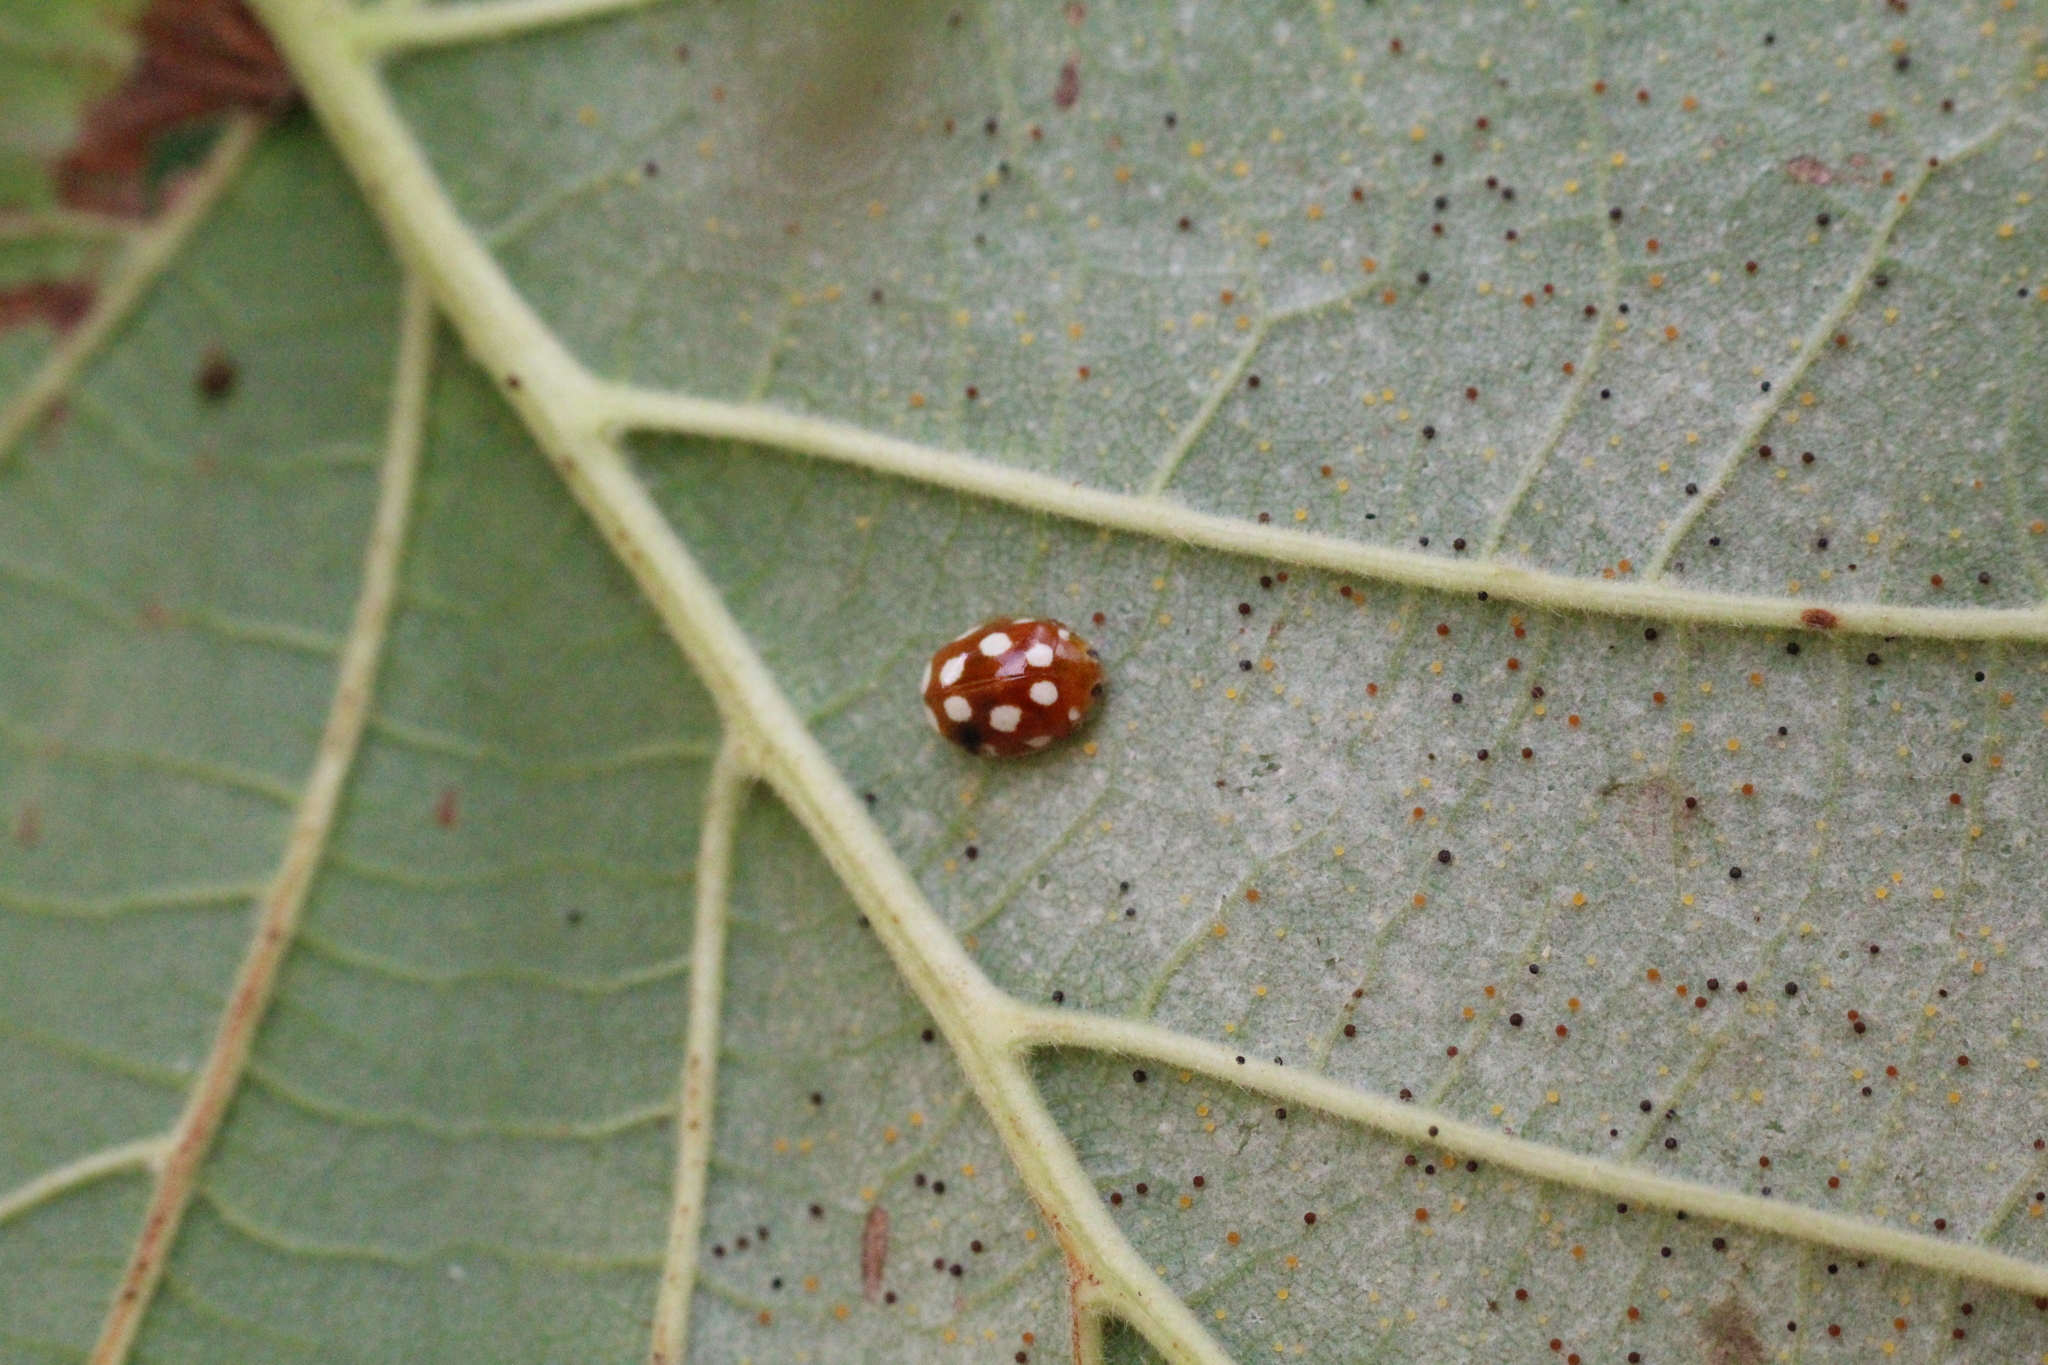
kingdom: Animalia
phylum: Arthropoda
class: Insecta
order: Coleoptera
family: Coccinellidae
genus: Vibidia
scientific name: Vibidia duodecimguttata
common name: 12-spot ladybird
